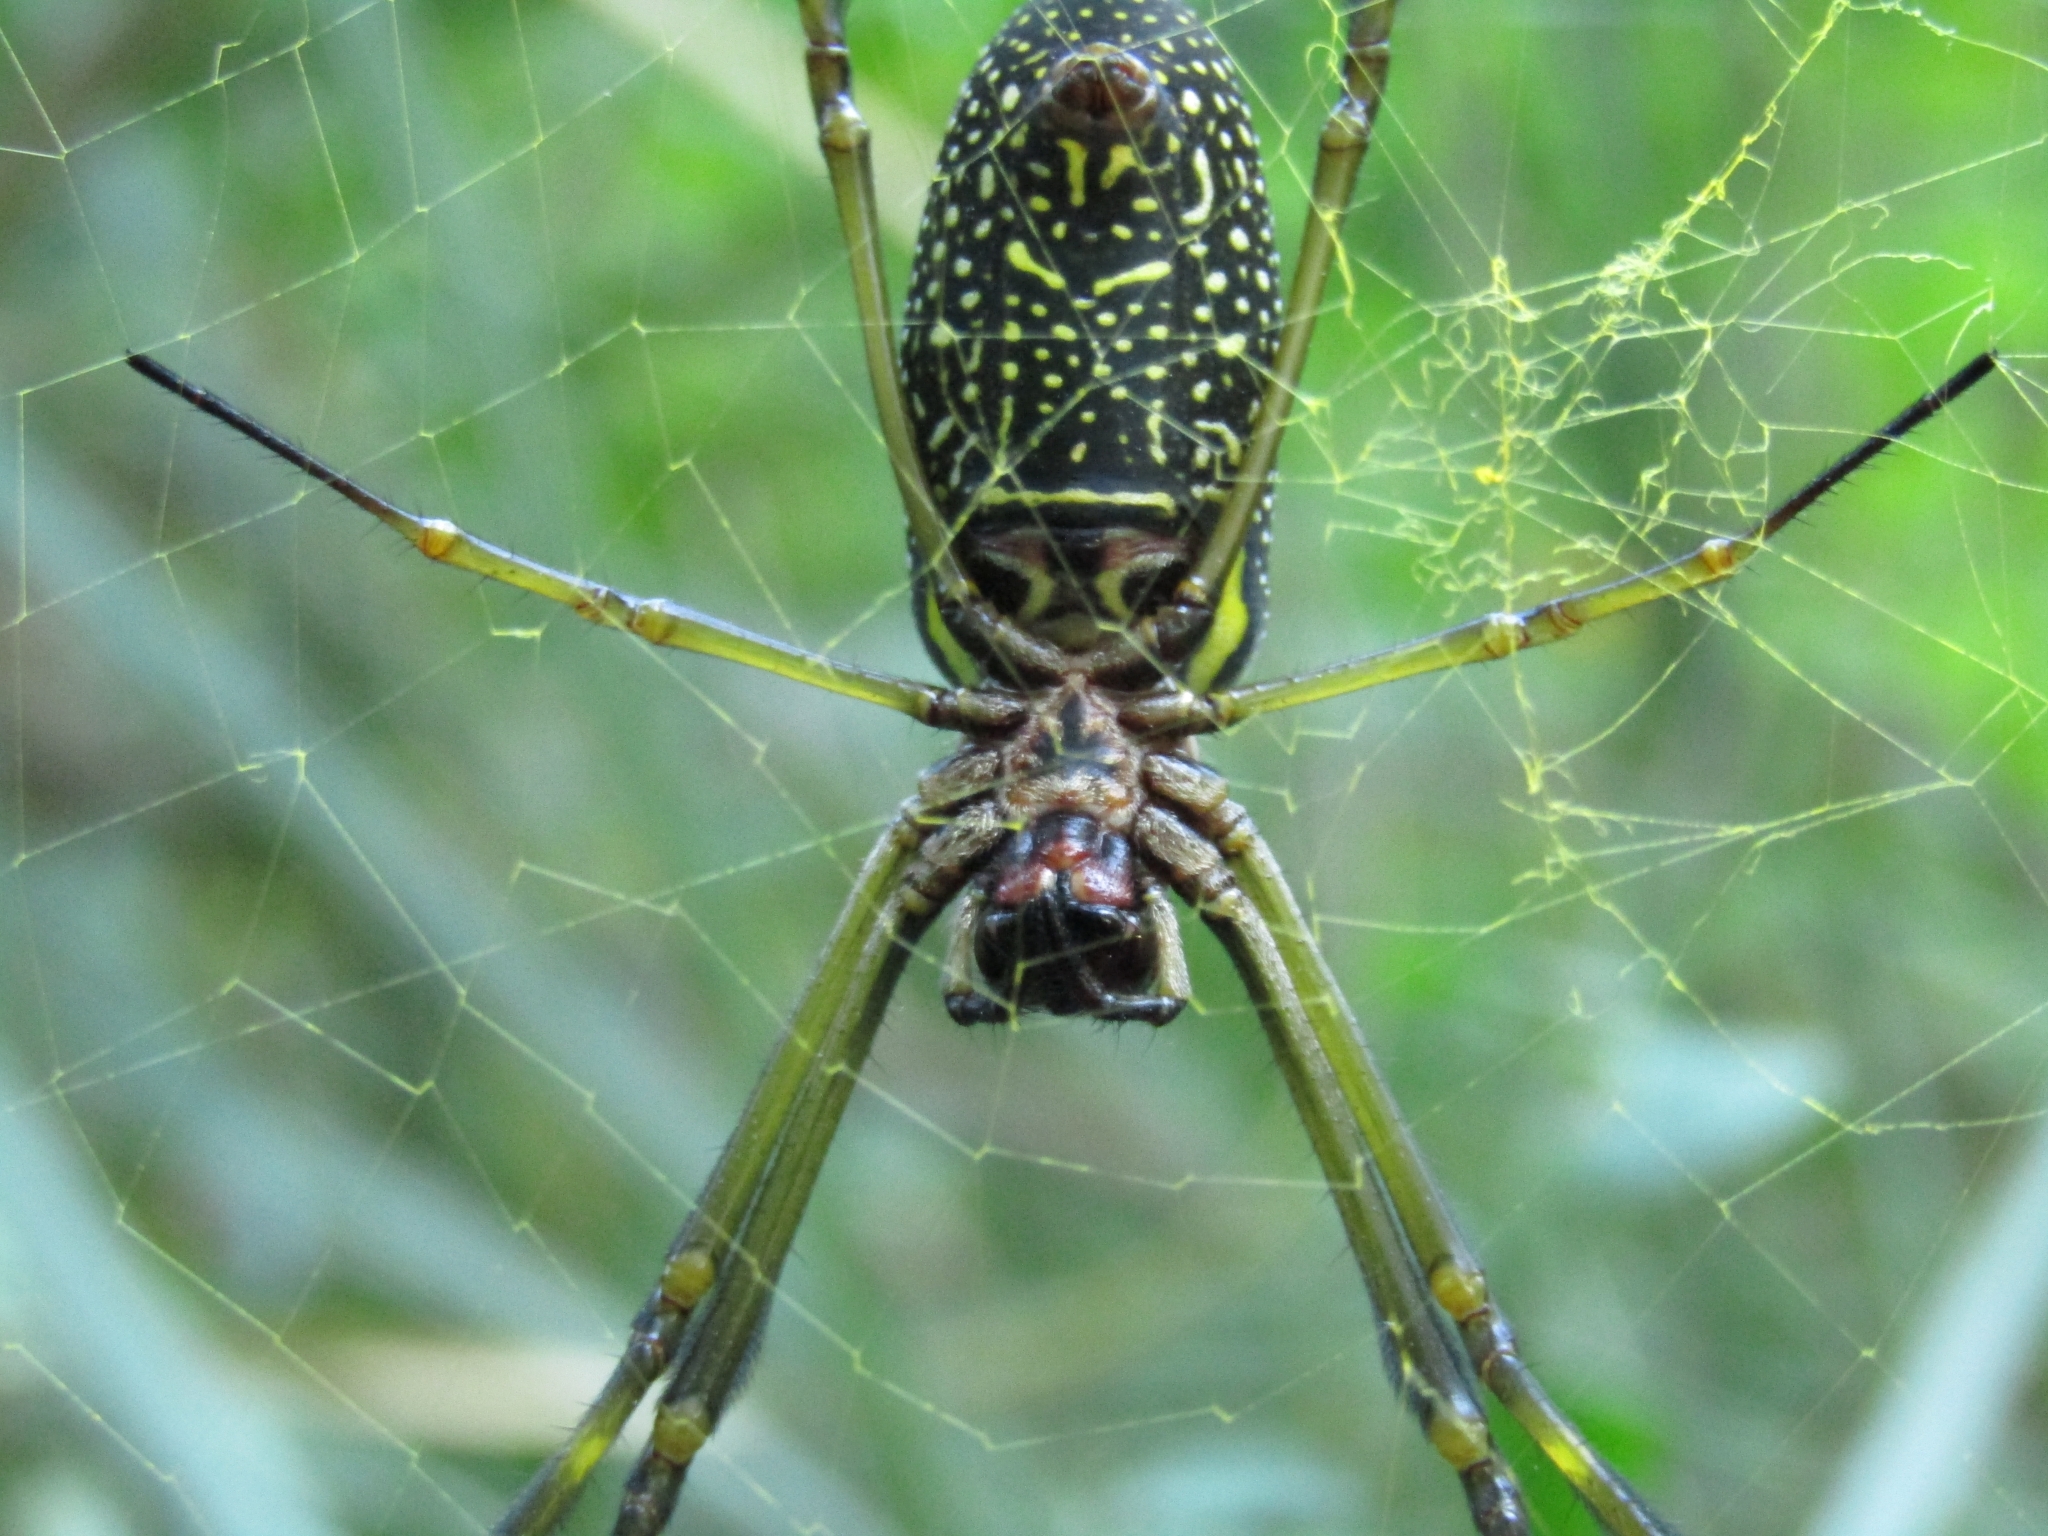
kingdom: Animalia
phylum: Arthropoda
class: Arachnida
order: Araneae
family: Araneidae
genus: Trichonephila
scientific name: Trichonephila clavipes
